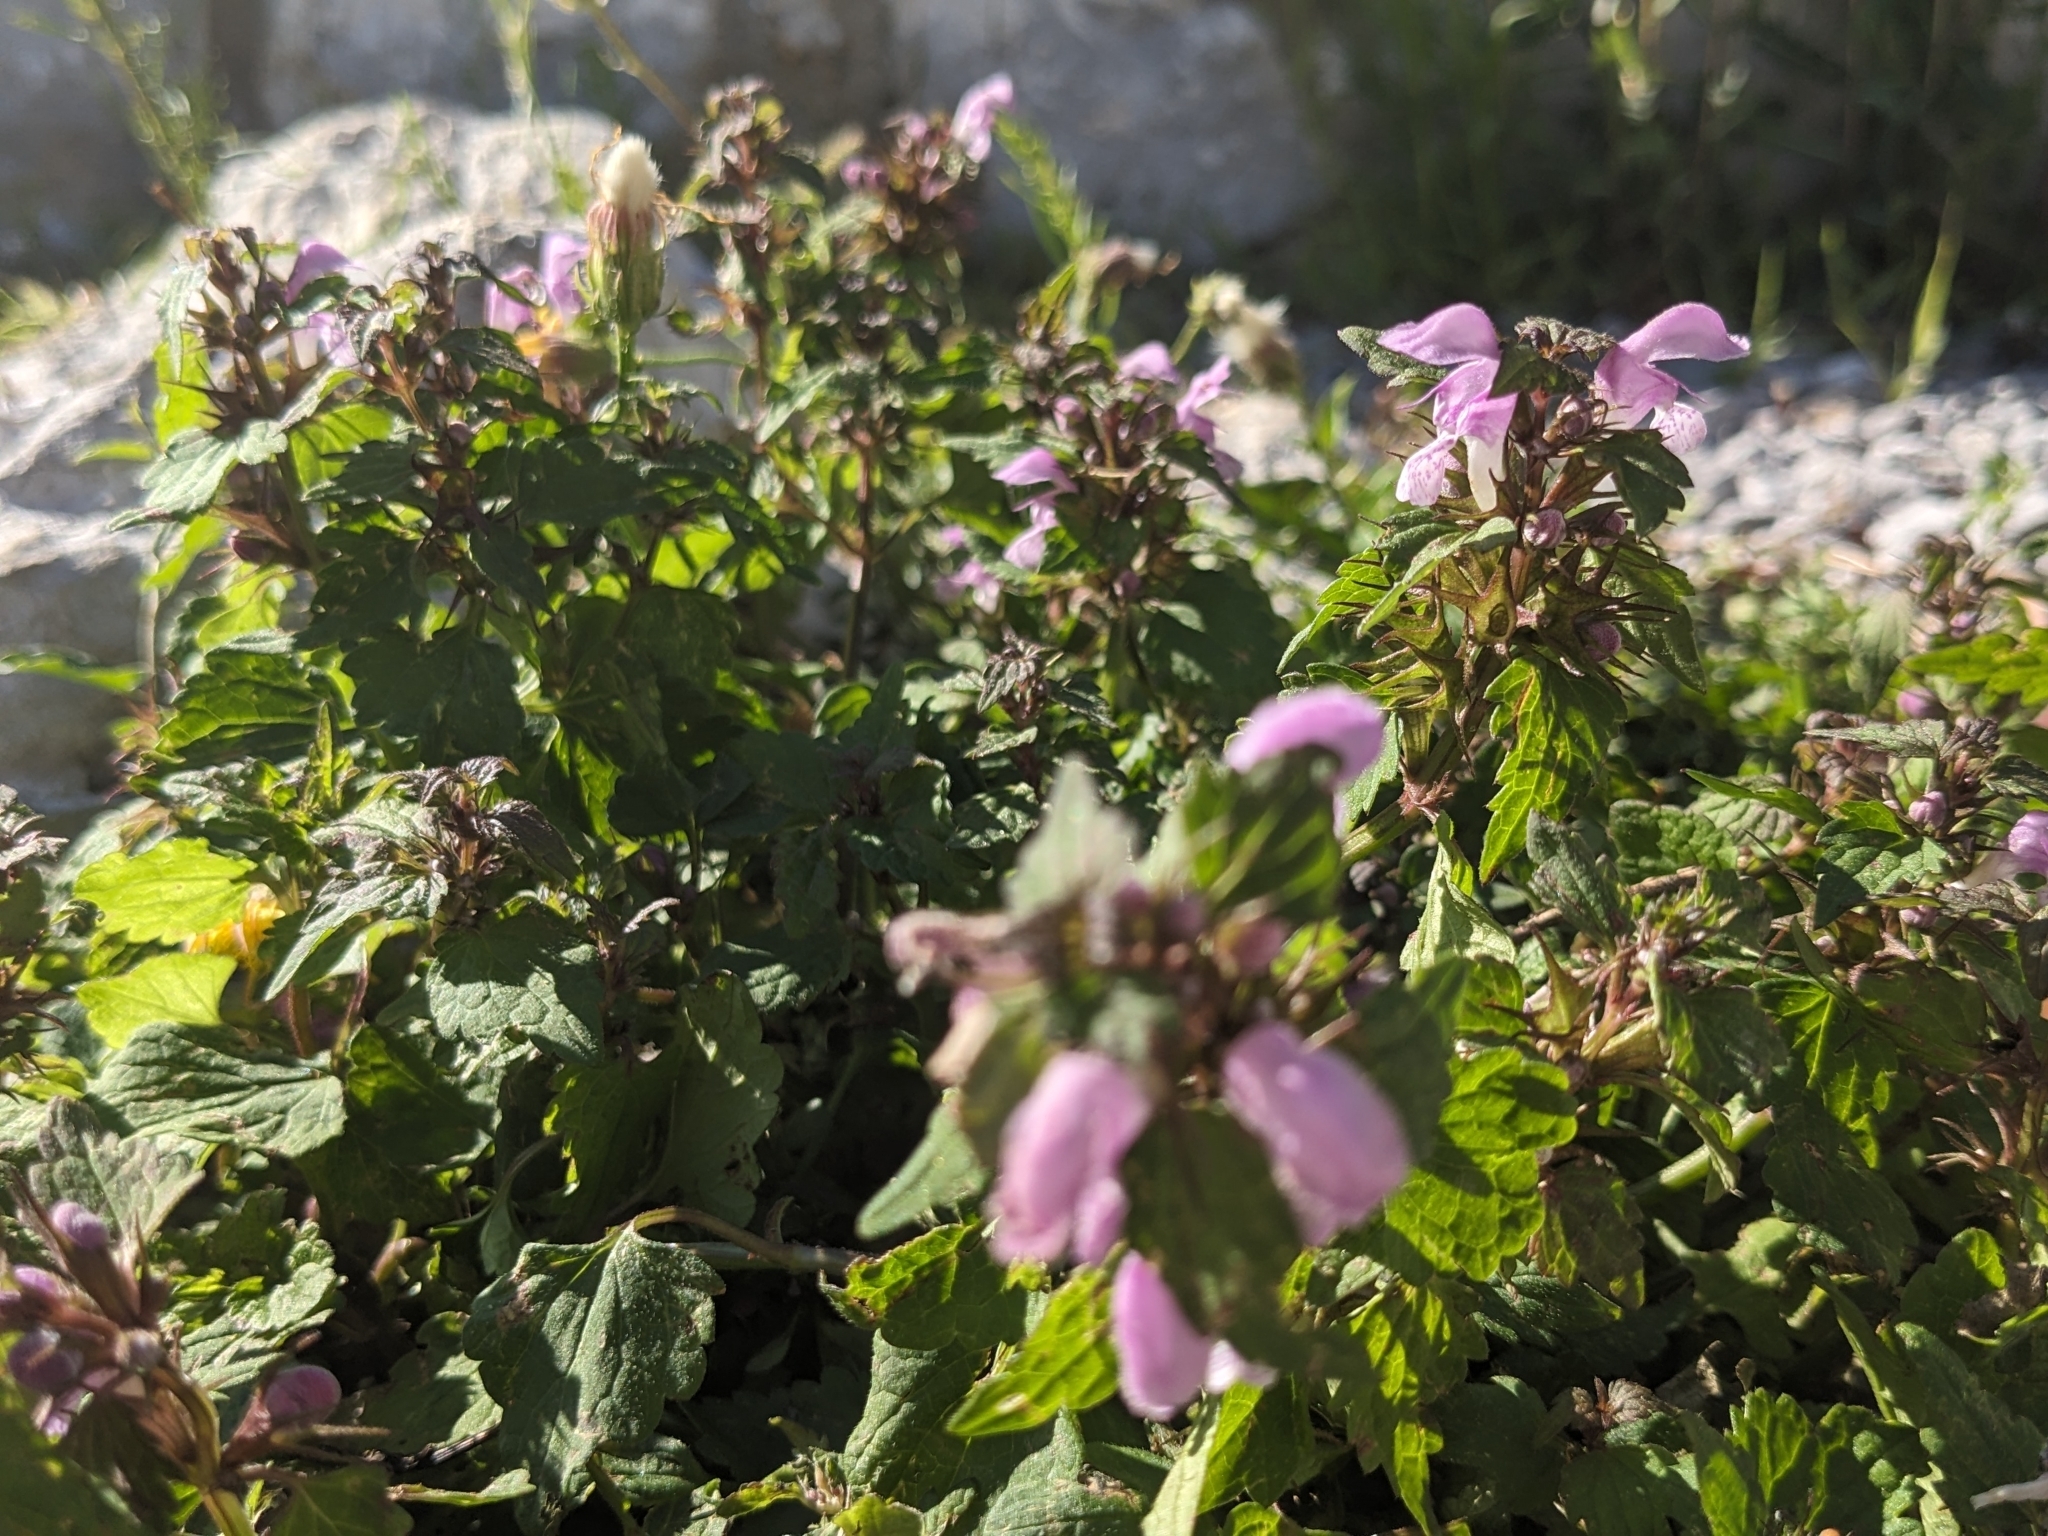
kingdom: Plantae
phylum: Tracheophyta
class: Magnoliopsida
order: Lamiales
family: Lamiaceae
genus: Lamium
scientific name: Lamium maculatum
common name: Spotted dead-nettle
